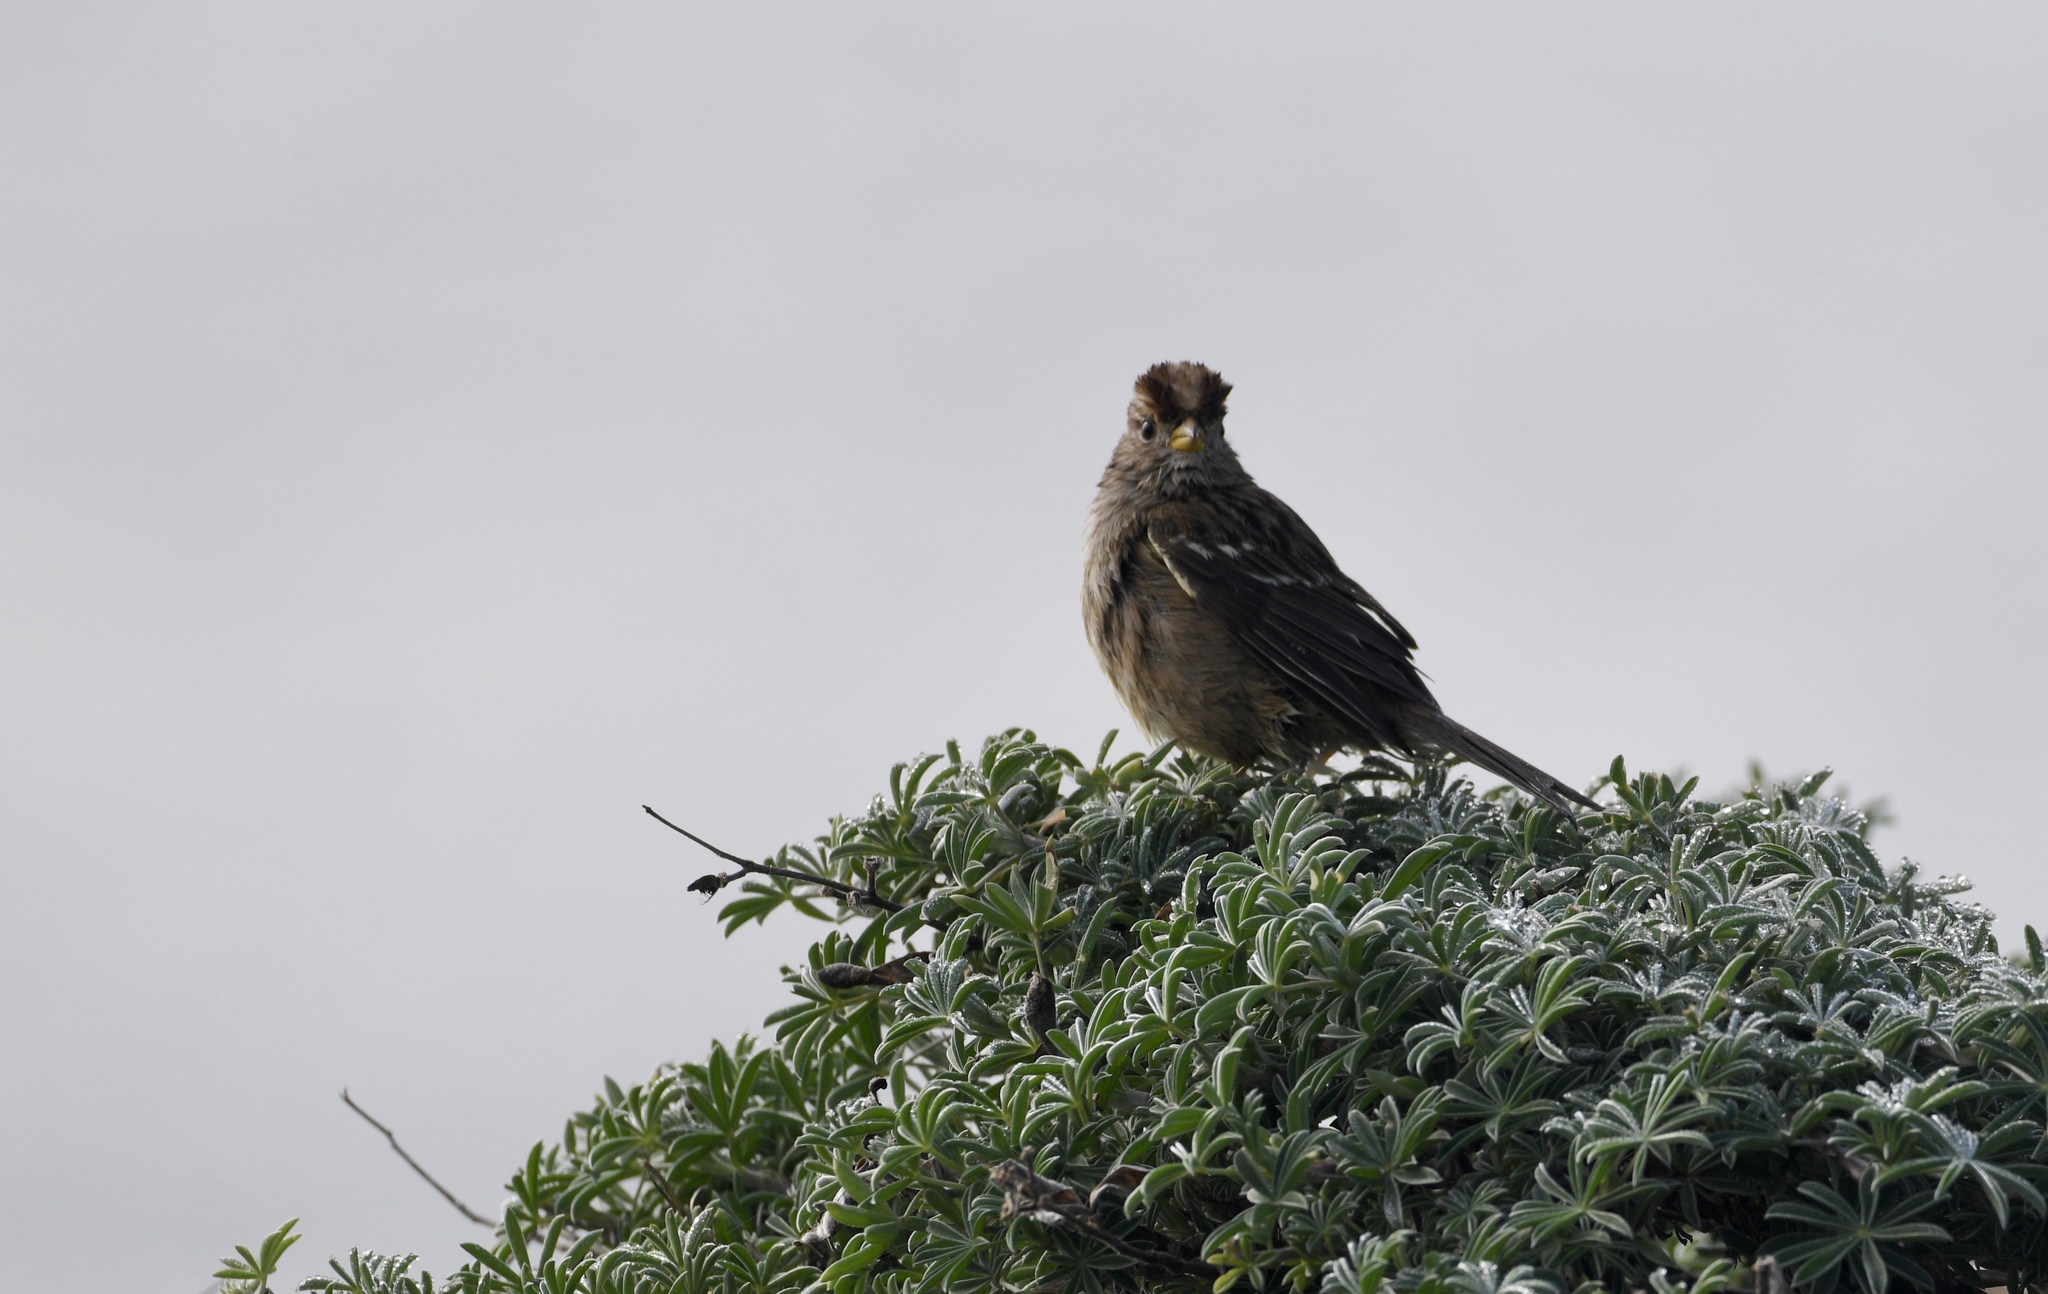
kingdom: Animalia
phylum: Chordata
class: Aves
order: Passeriformes
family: Passerellidae
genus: Zonotrichia
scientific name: Zonotrichia leucophrys
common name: White-crowned sparrow
